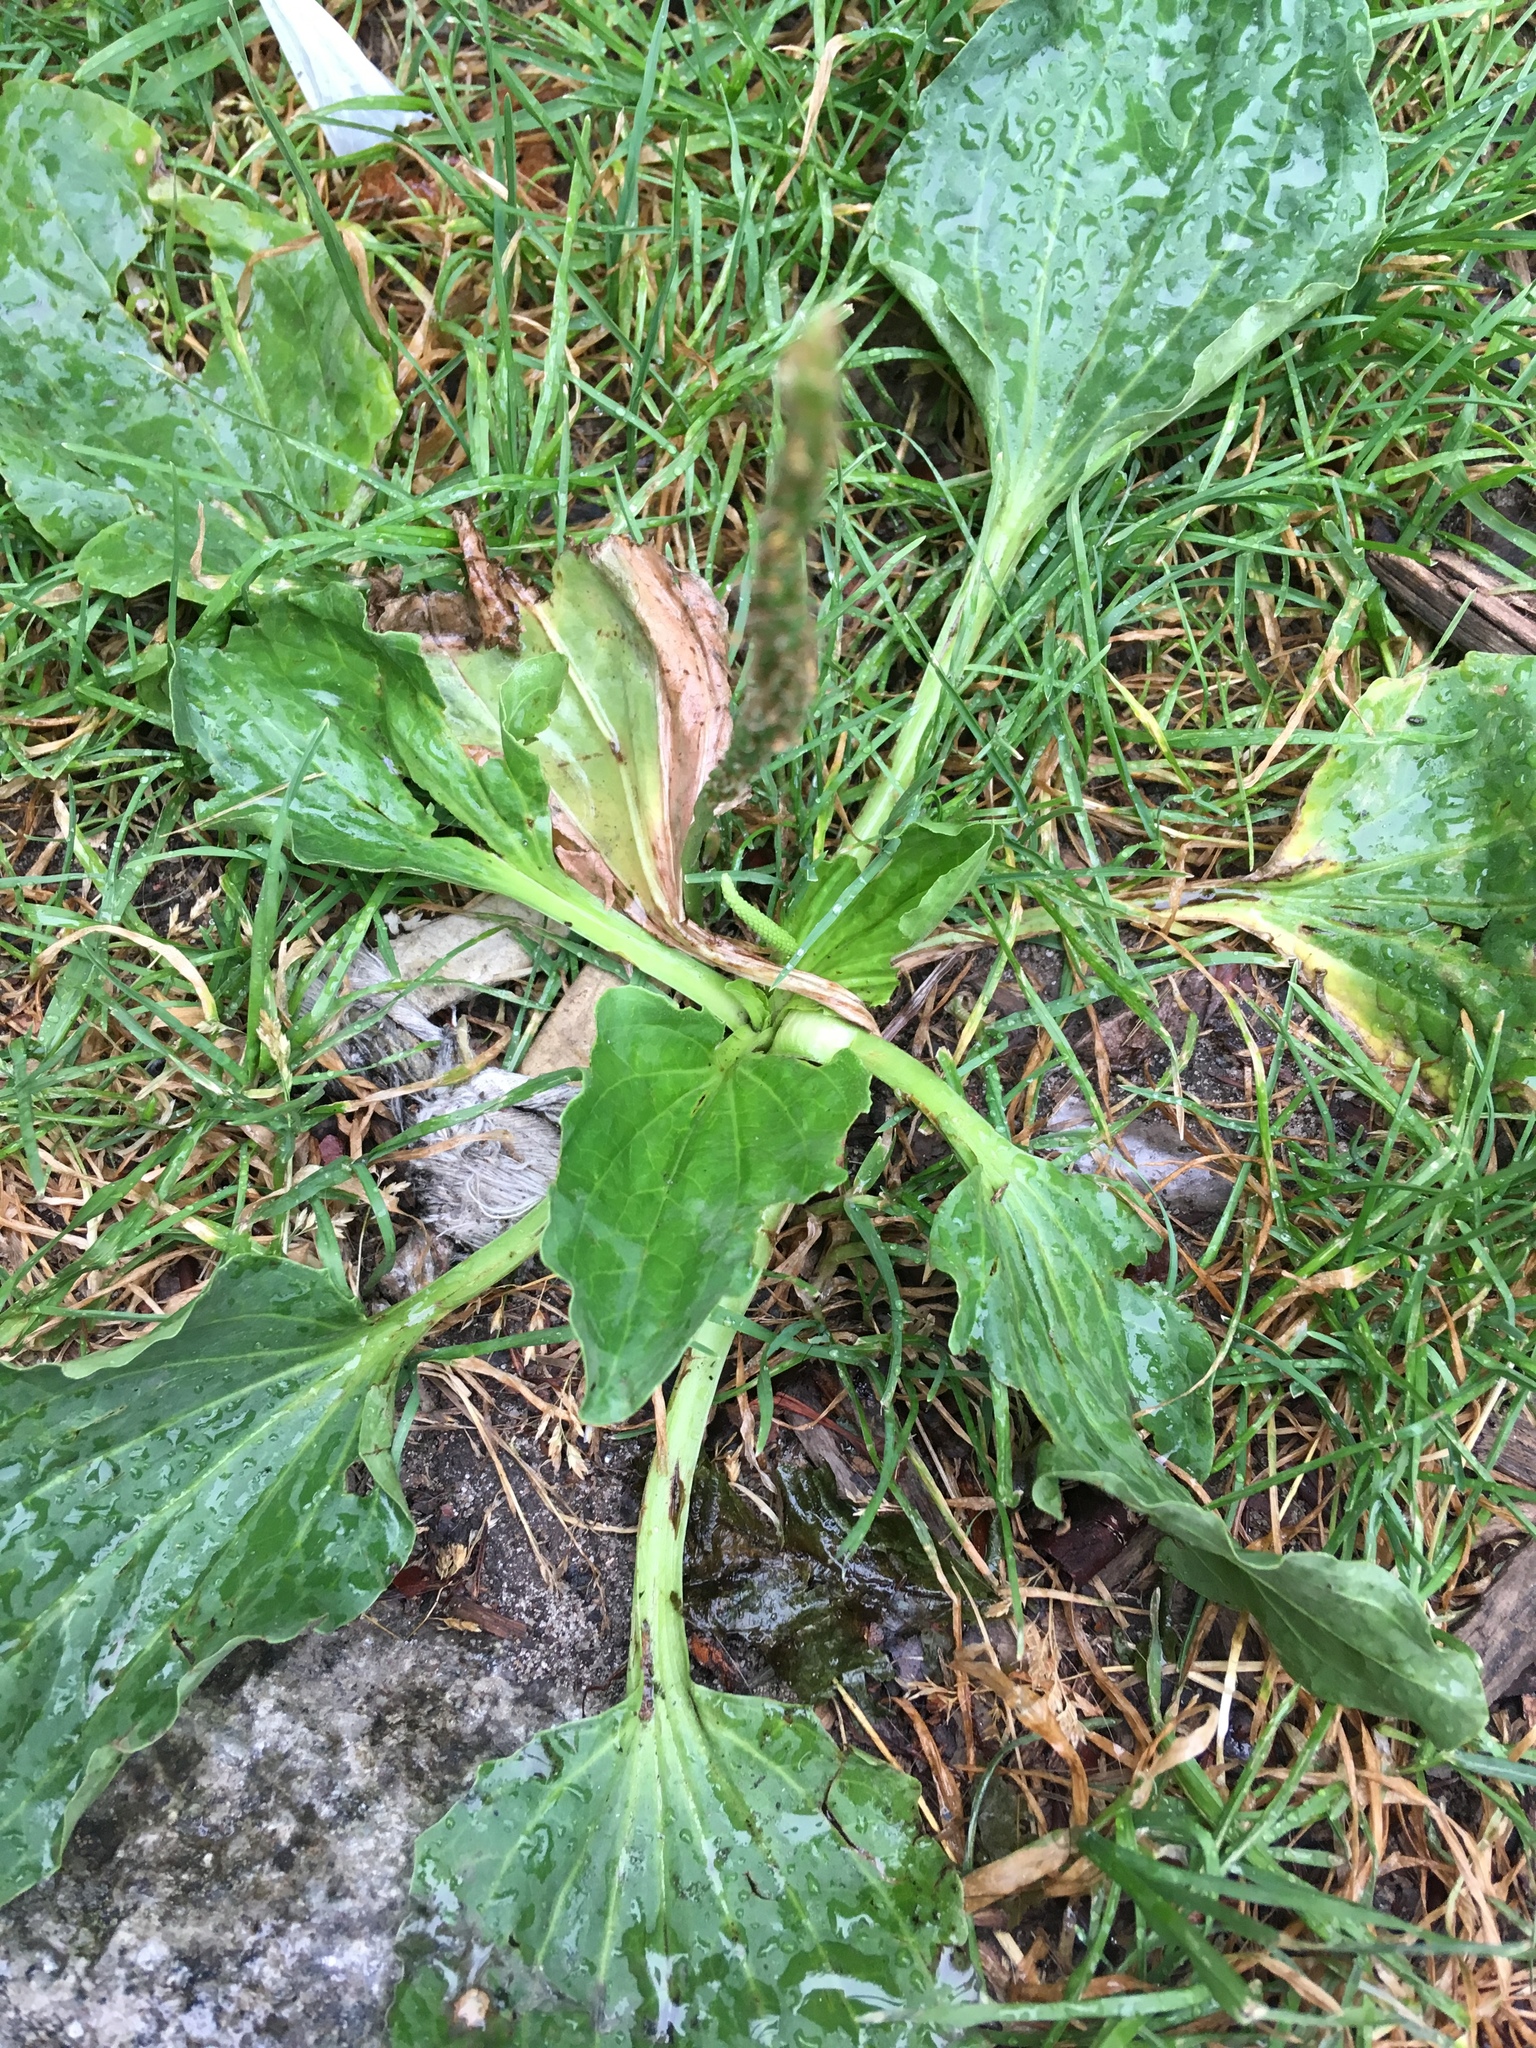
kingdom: Plantae
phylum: Tracheophyta
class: Magnoliopsida
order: Lamiales
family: Plantaginaceae
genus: Plantago
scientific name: Plantago major
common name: Common plantain
